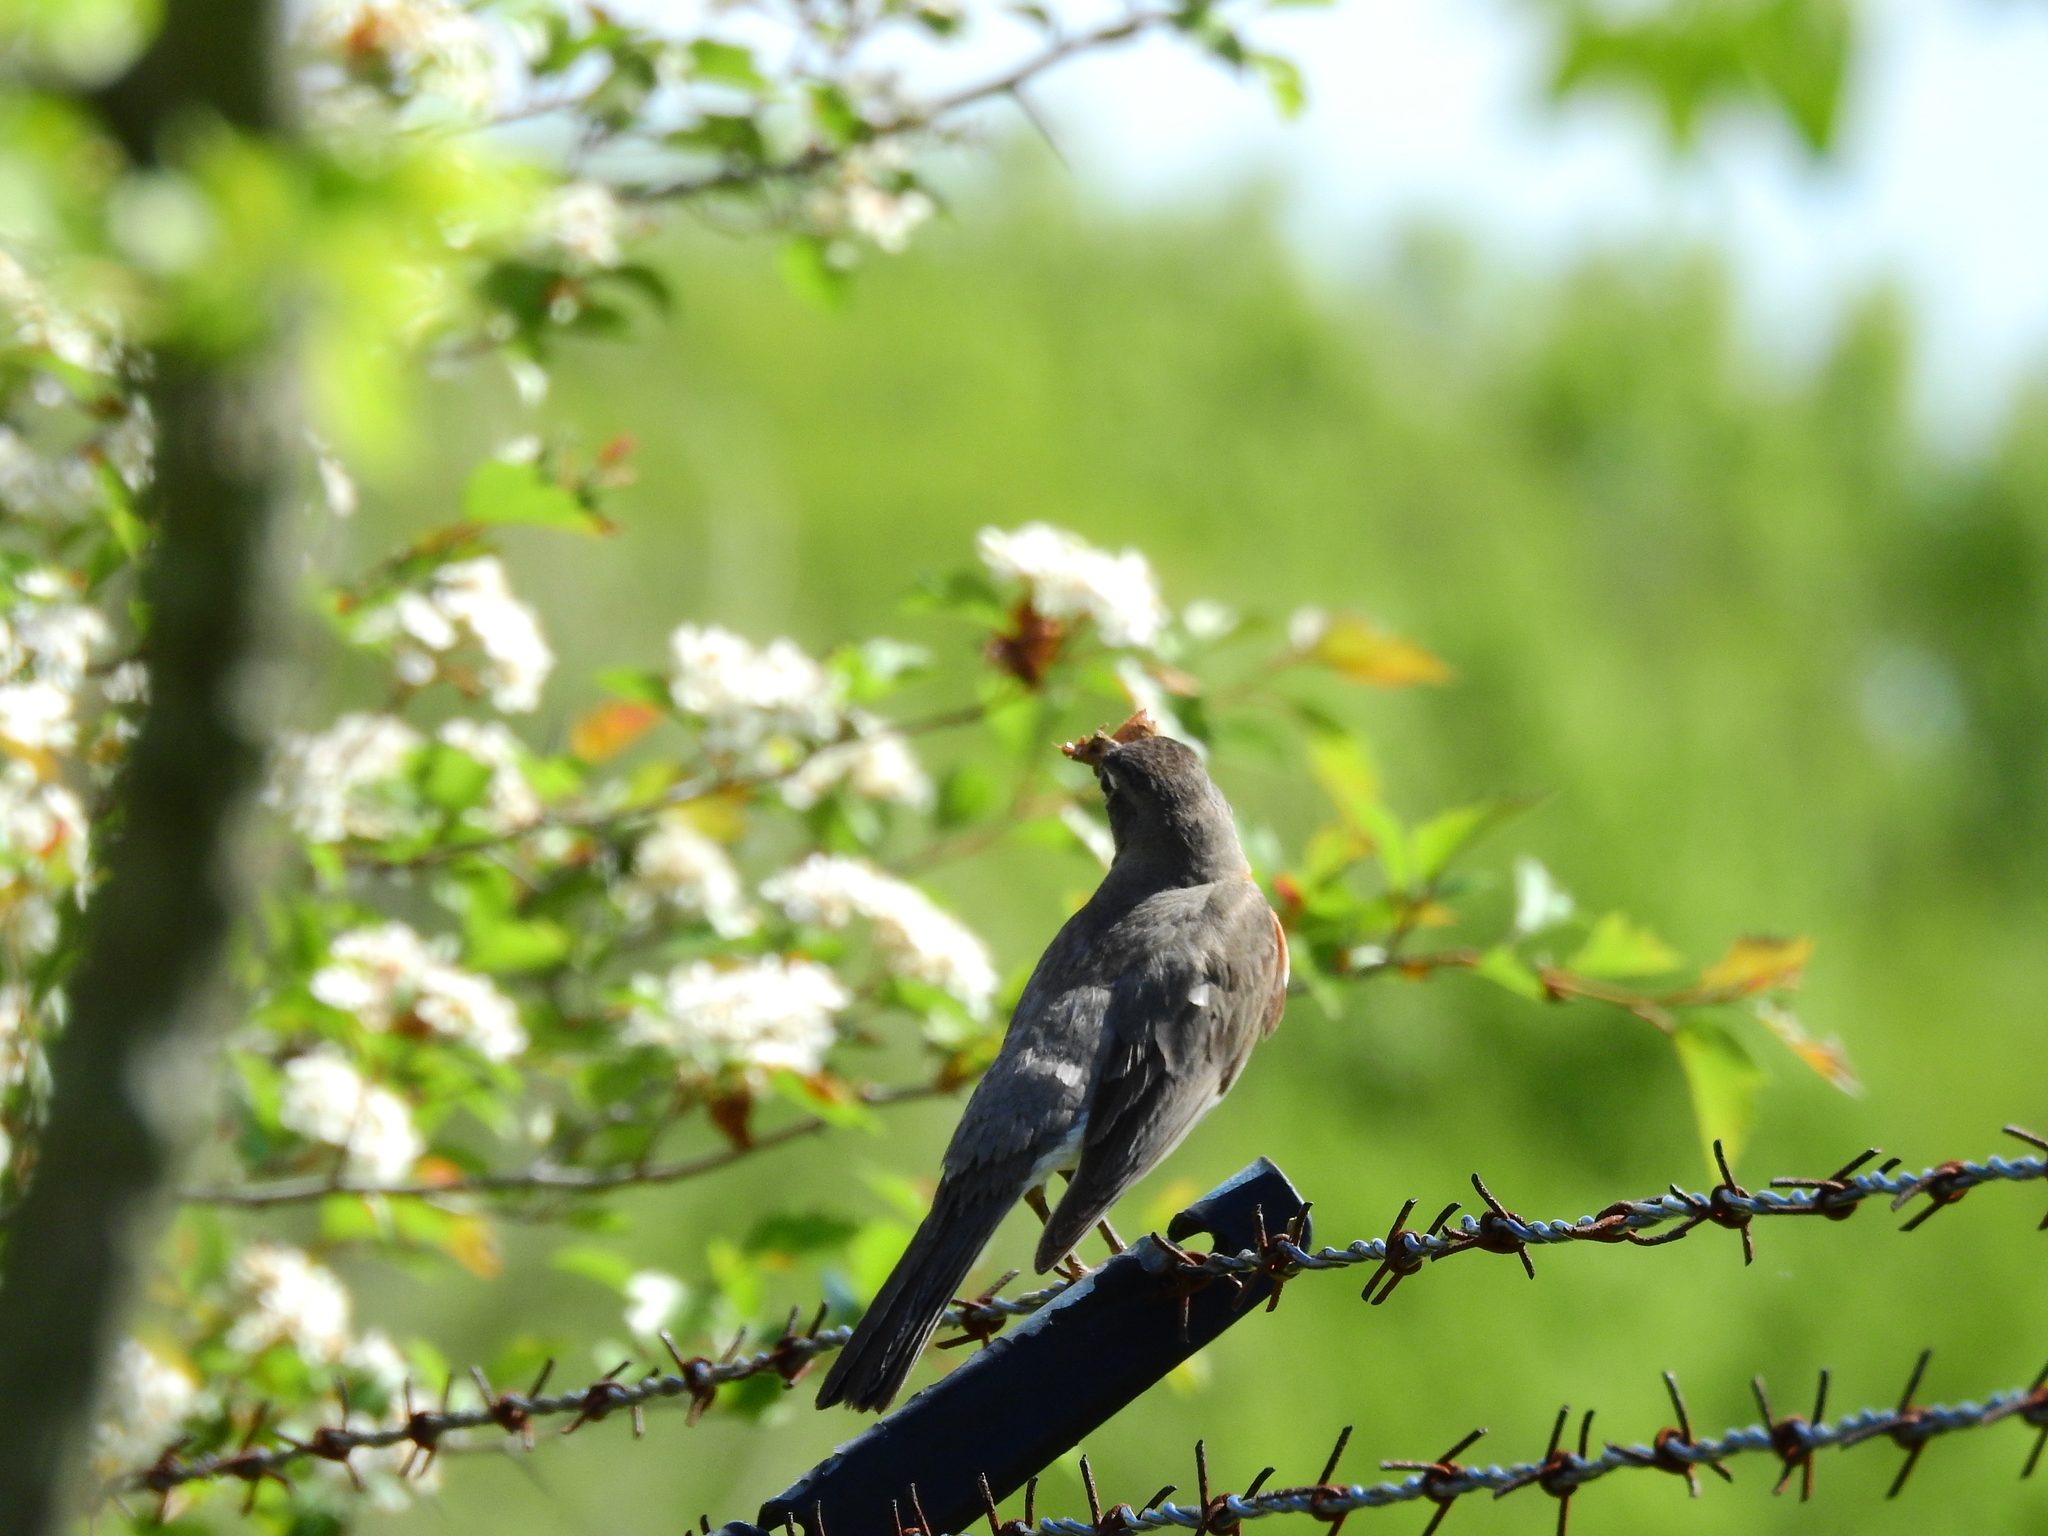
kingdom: Animalia
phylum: Chordata
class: Aves
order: Passeriformes
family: Turdidae
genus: Turdus
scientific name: Turdus migratorius
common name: American robin
